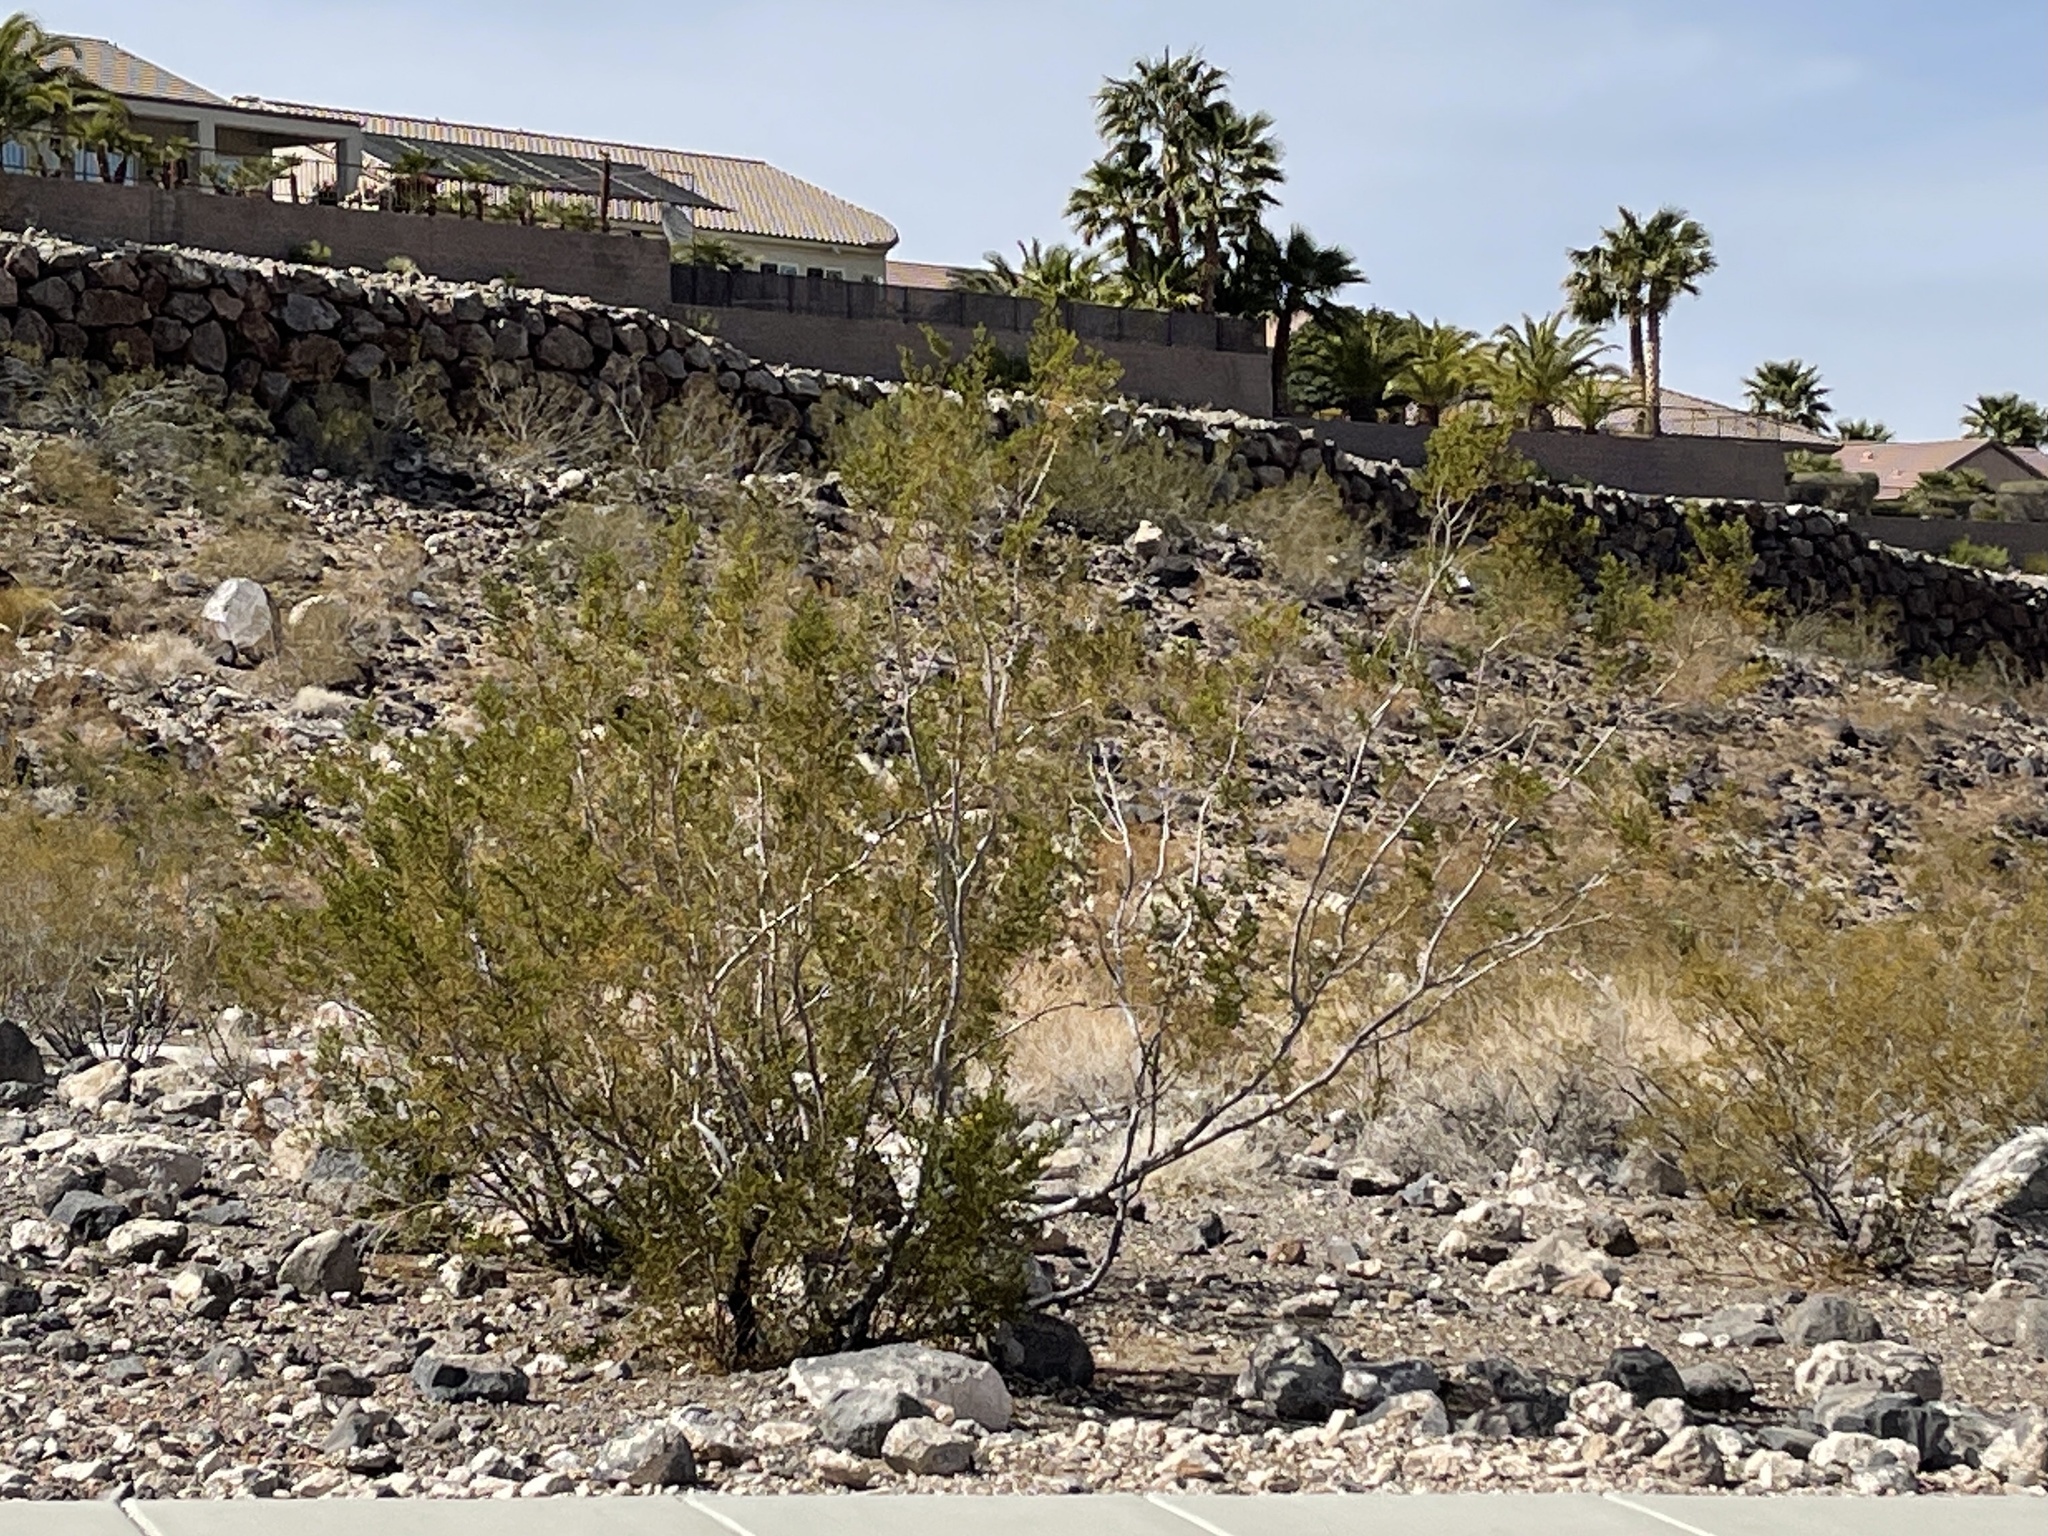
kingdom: Plantae
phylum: Tracheophyta
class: Magnoliopsida
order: Zygophyllales
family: Zygophyllaceae
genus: Larrea
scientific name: Larrea tridentata
